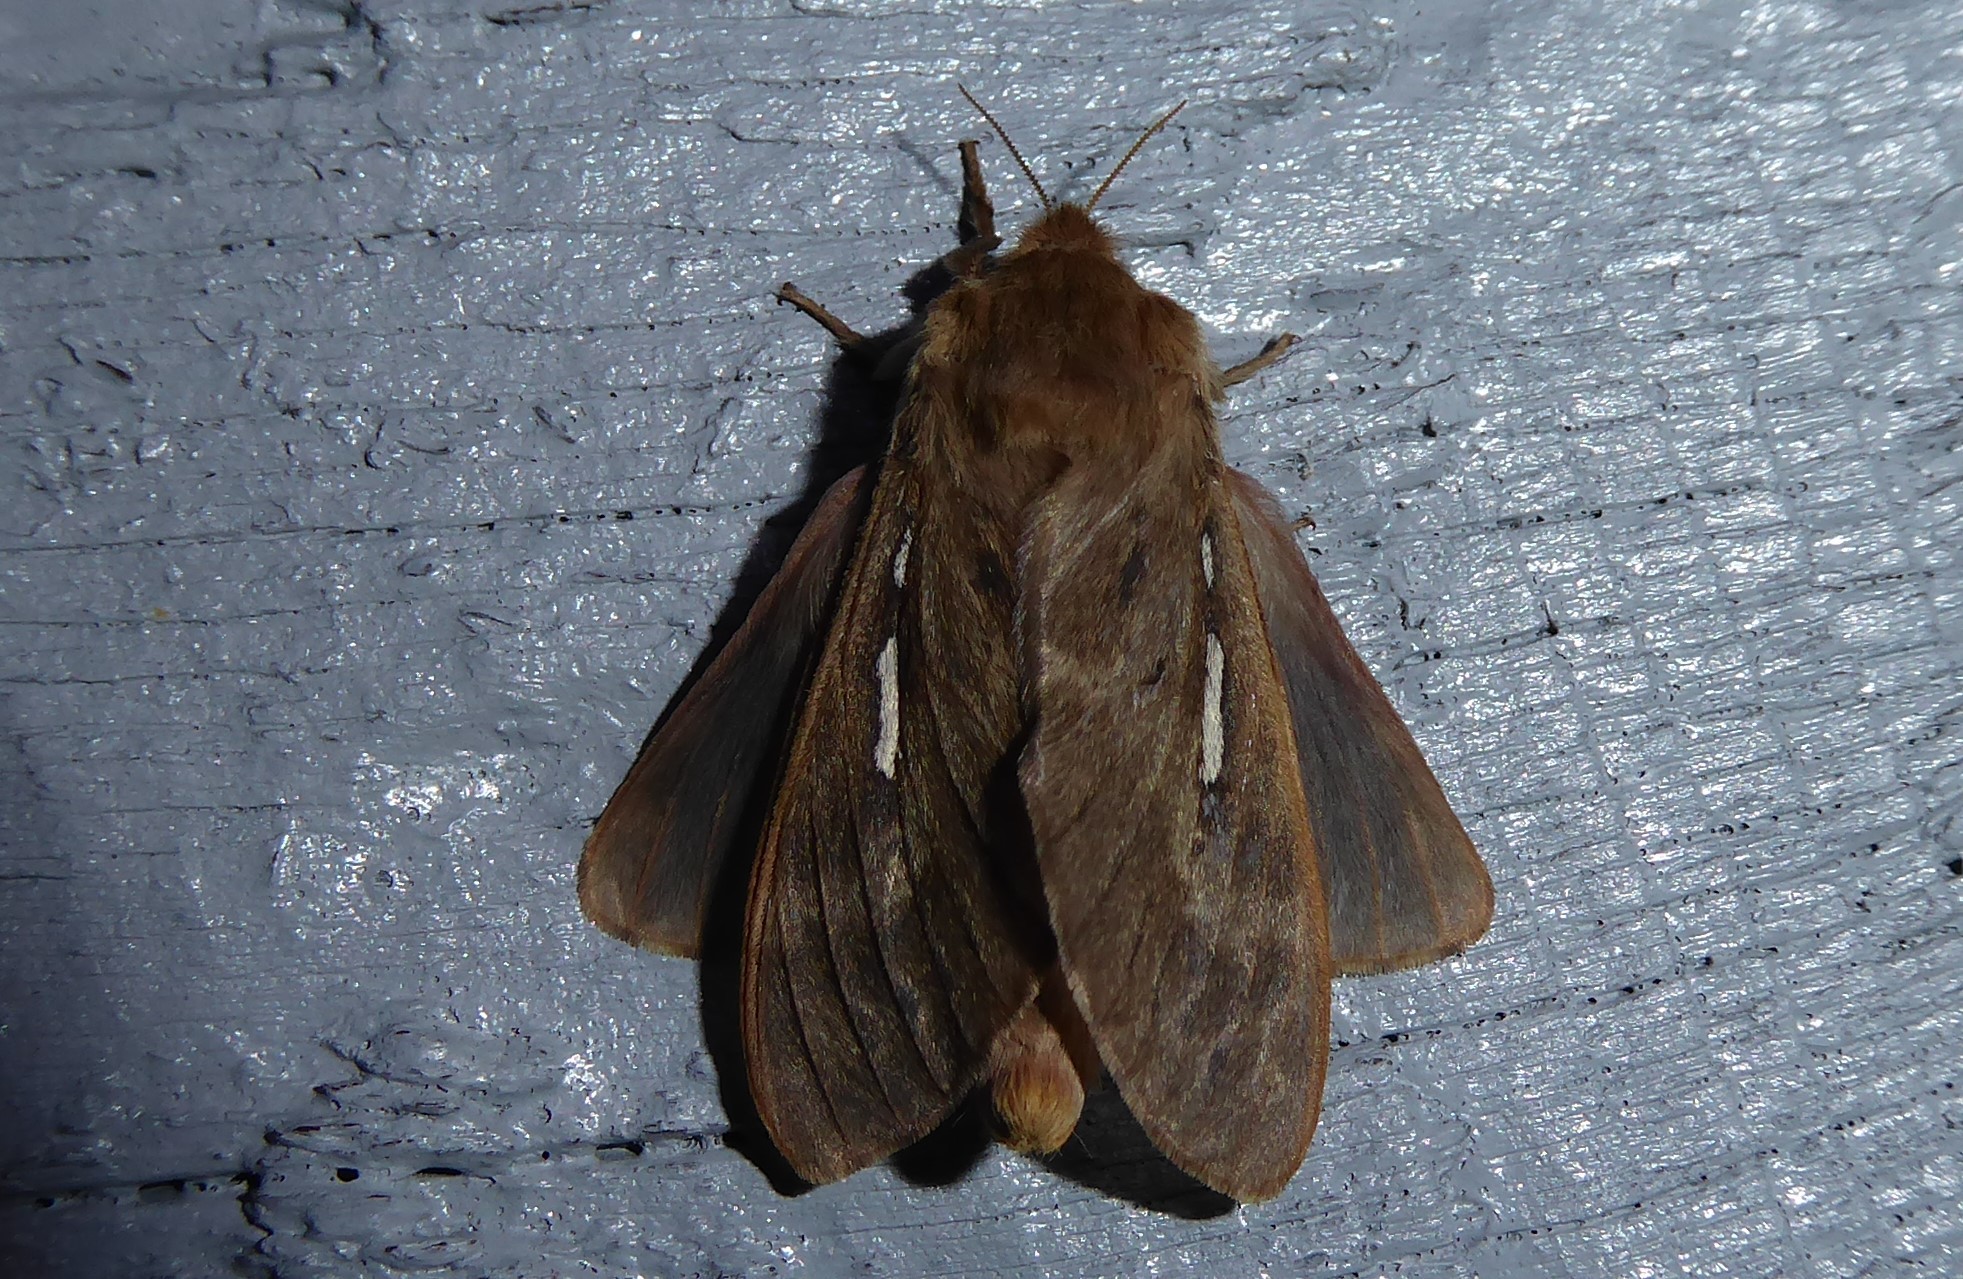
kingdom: Animalia
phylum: Arthropoda
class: Insecta
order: Lepidoptera
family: Hepialidae
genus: Wiseana
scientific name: Wiseana copularis
